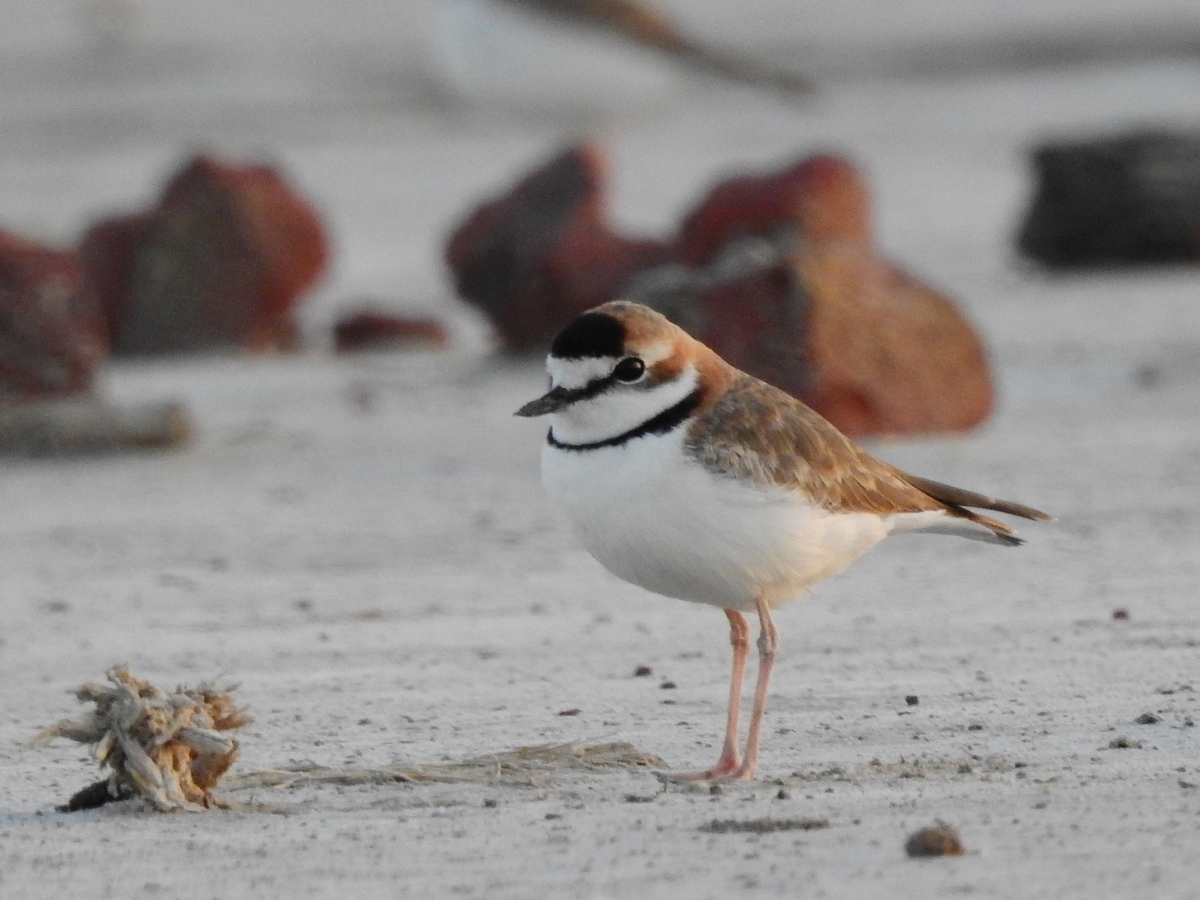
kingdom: Animalia
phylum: Chordata
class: Aves
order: Charadriiformes
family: Charadriidae
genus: Anarhynchus
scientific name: Anarhynchus
